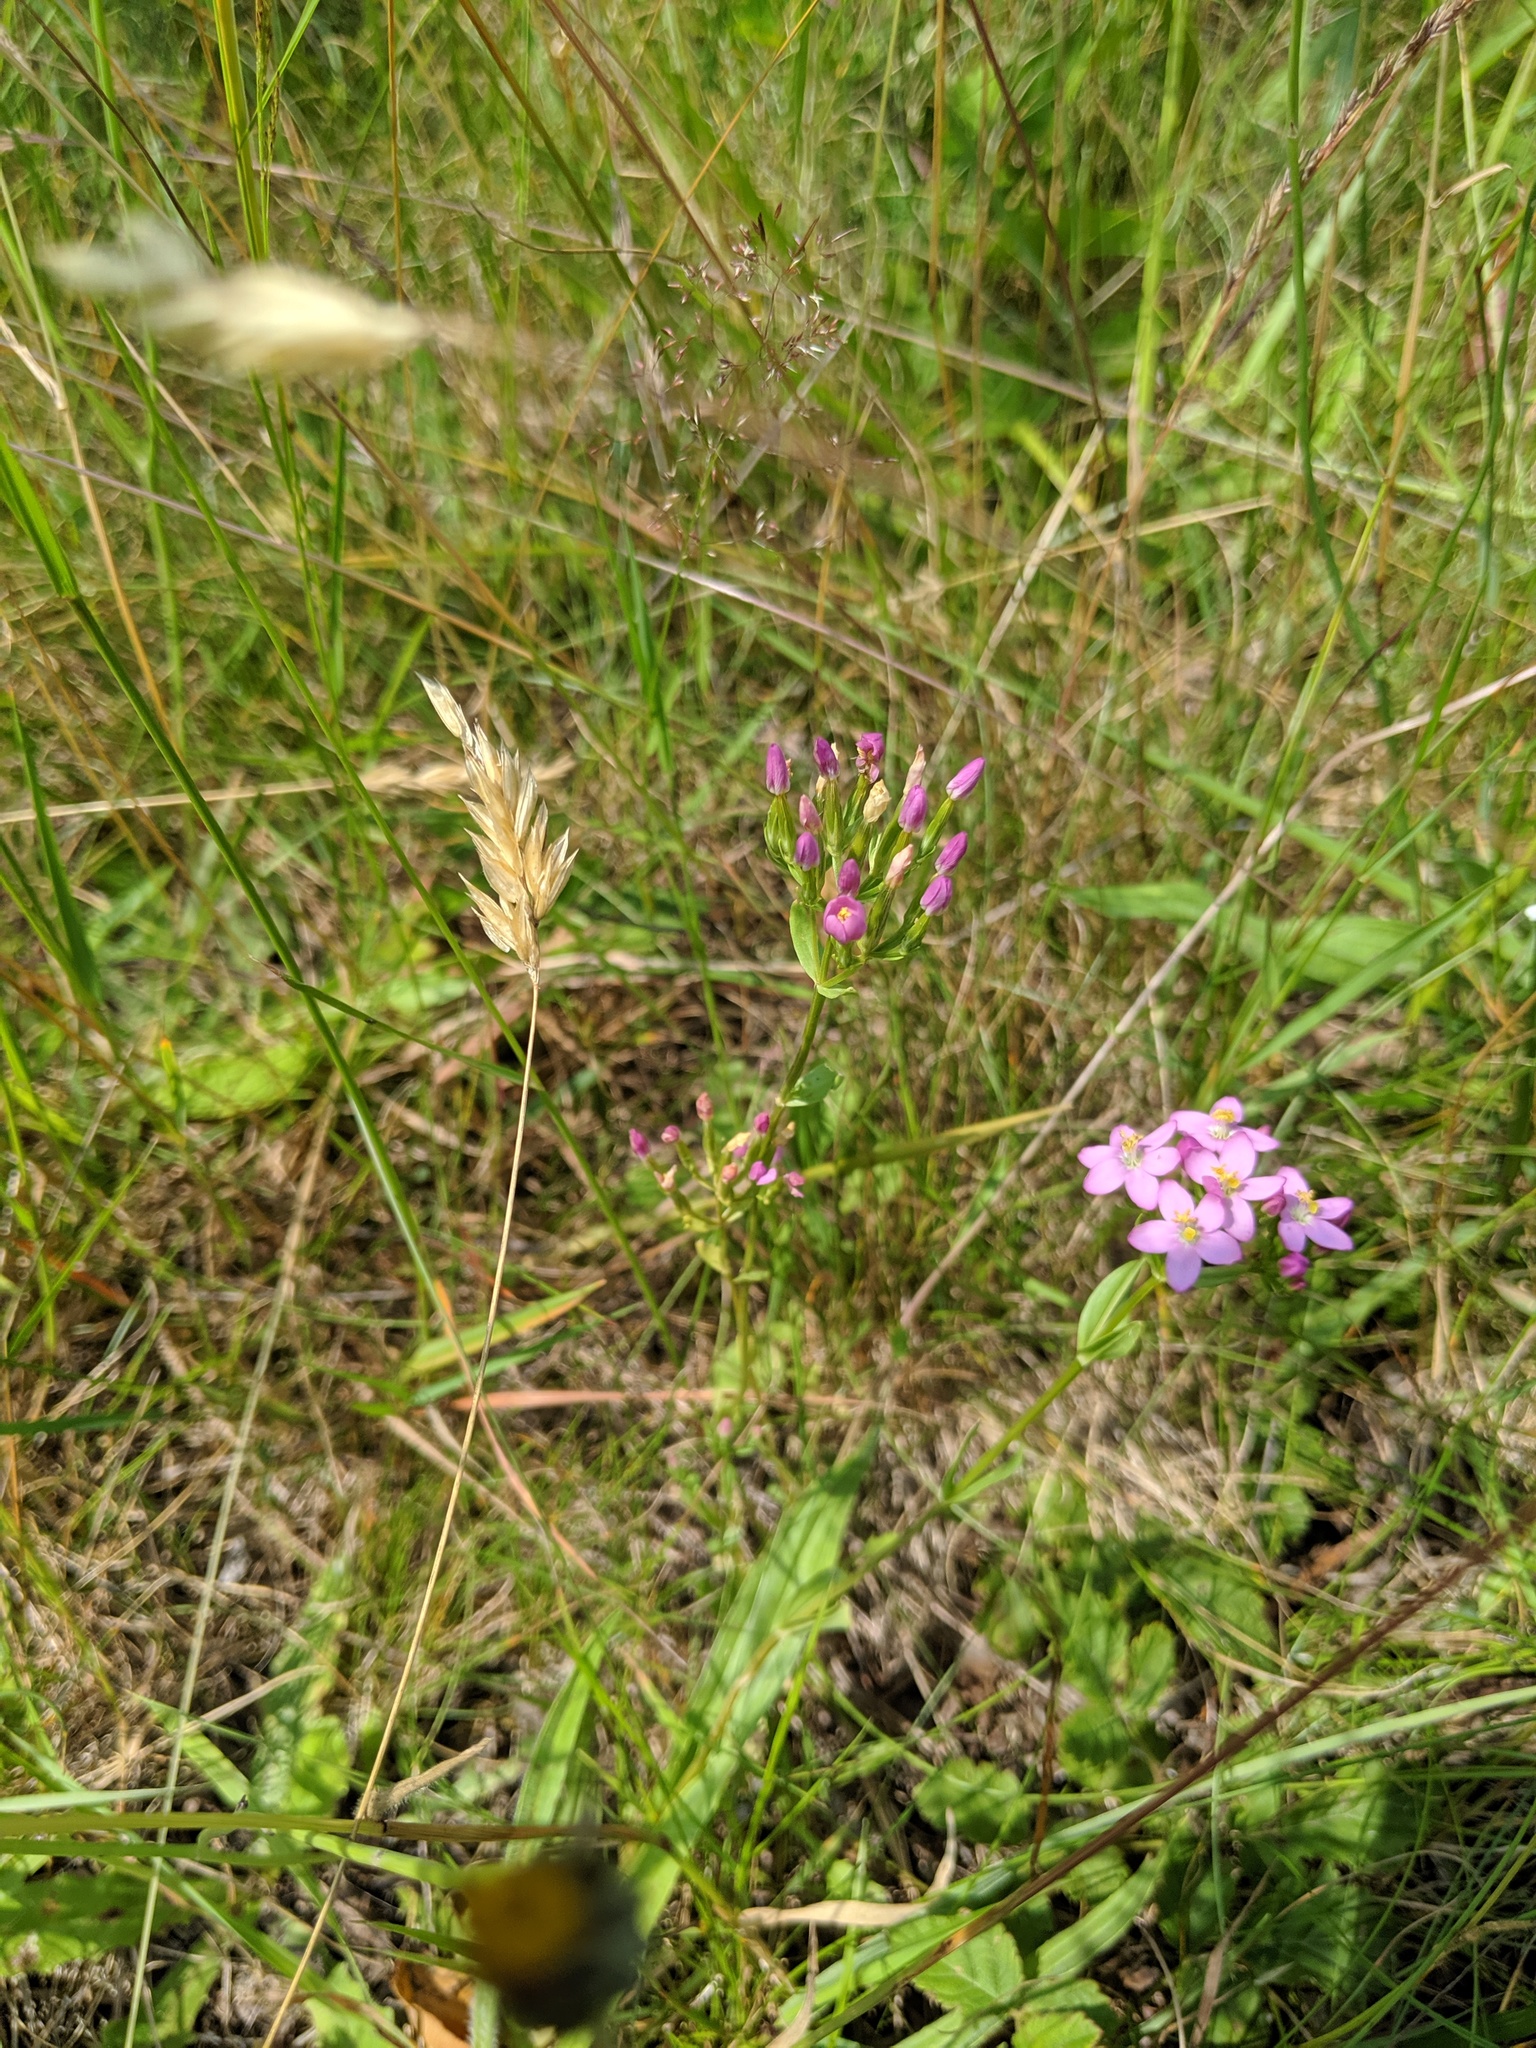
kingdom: Plantae
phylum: Tracheophyta
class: Magnoliopsida
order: Gentianales
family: Gentianaceae
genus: Centaurium
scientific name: Centaurium erythraea
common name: Common centaury
